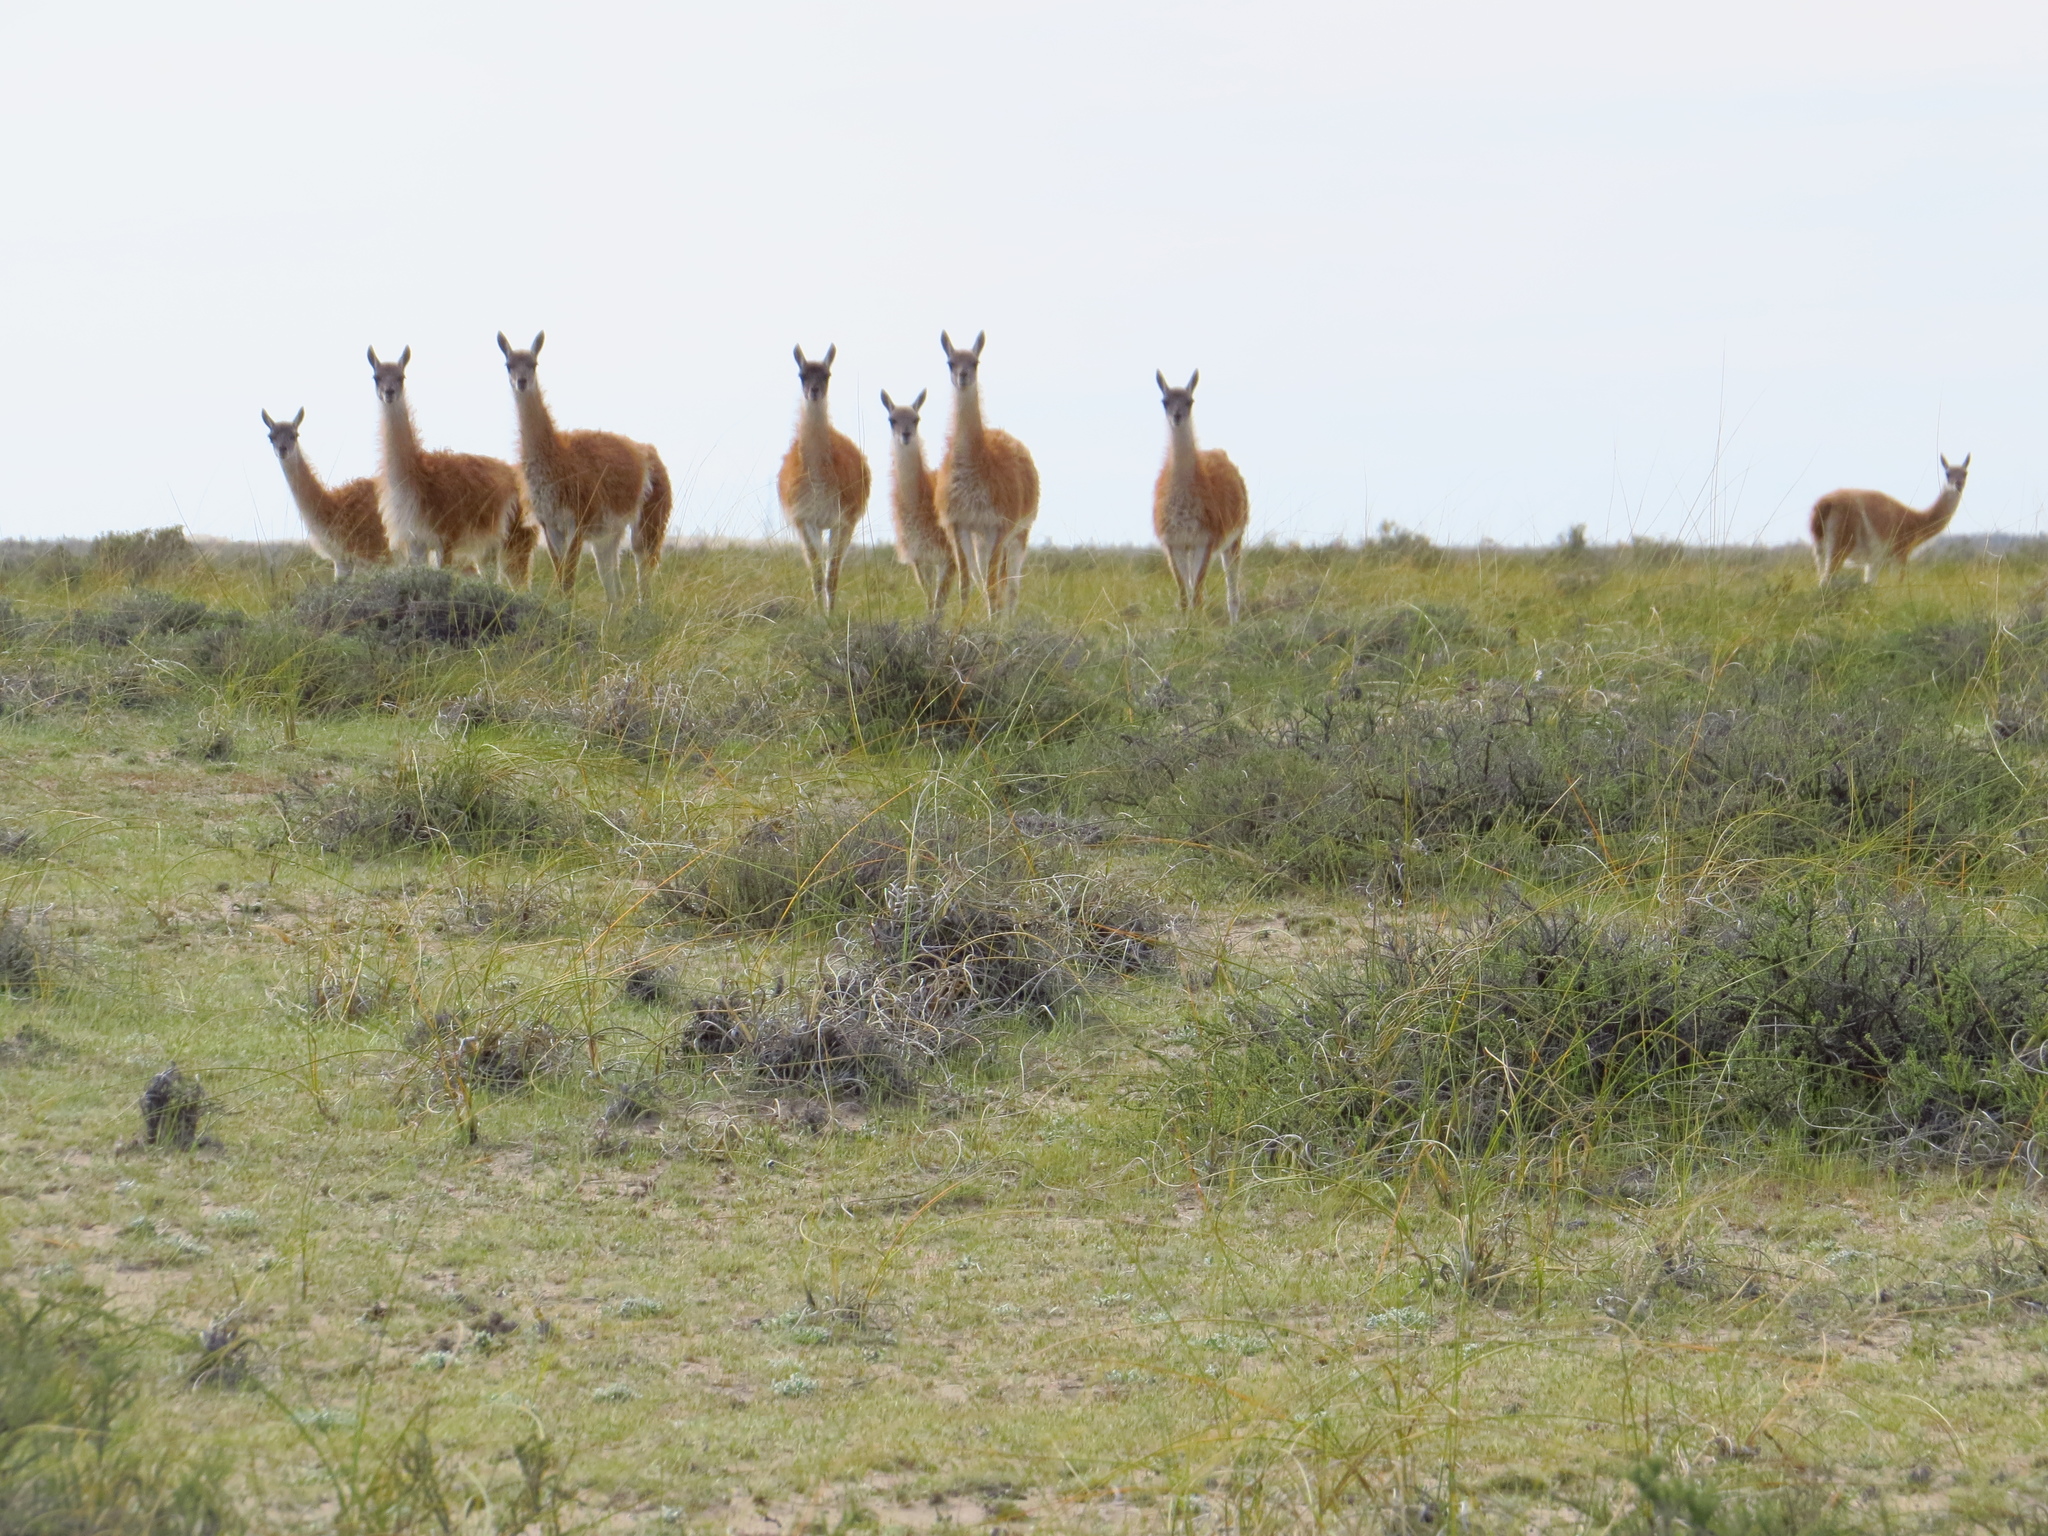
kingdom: Animalia
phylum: Chordata
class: Mammalia
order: Artiodactyla
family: Camelidae
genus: Lama
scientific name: Lama glama
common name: Llama
